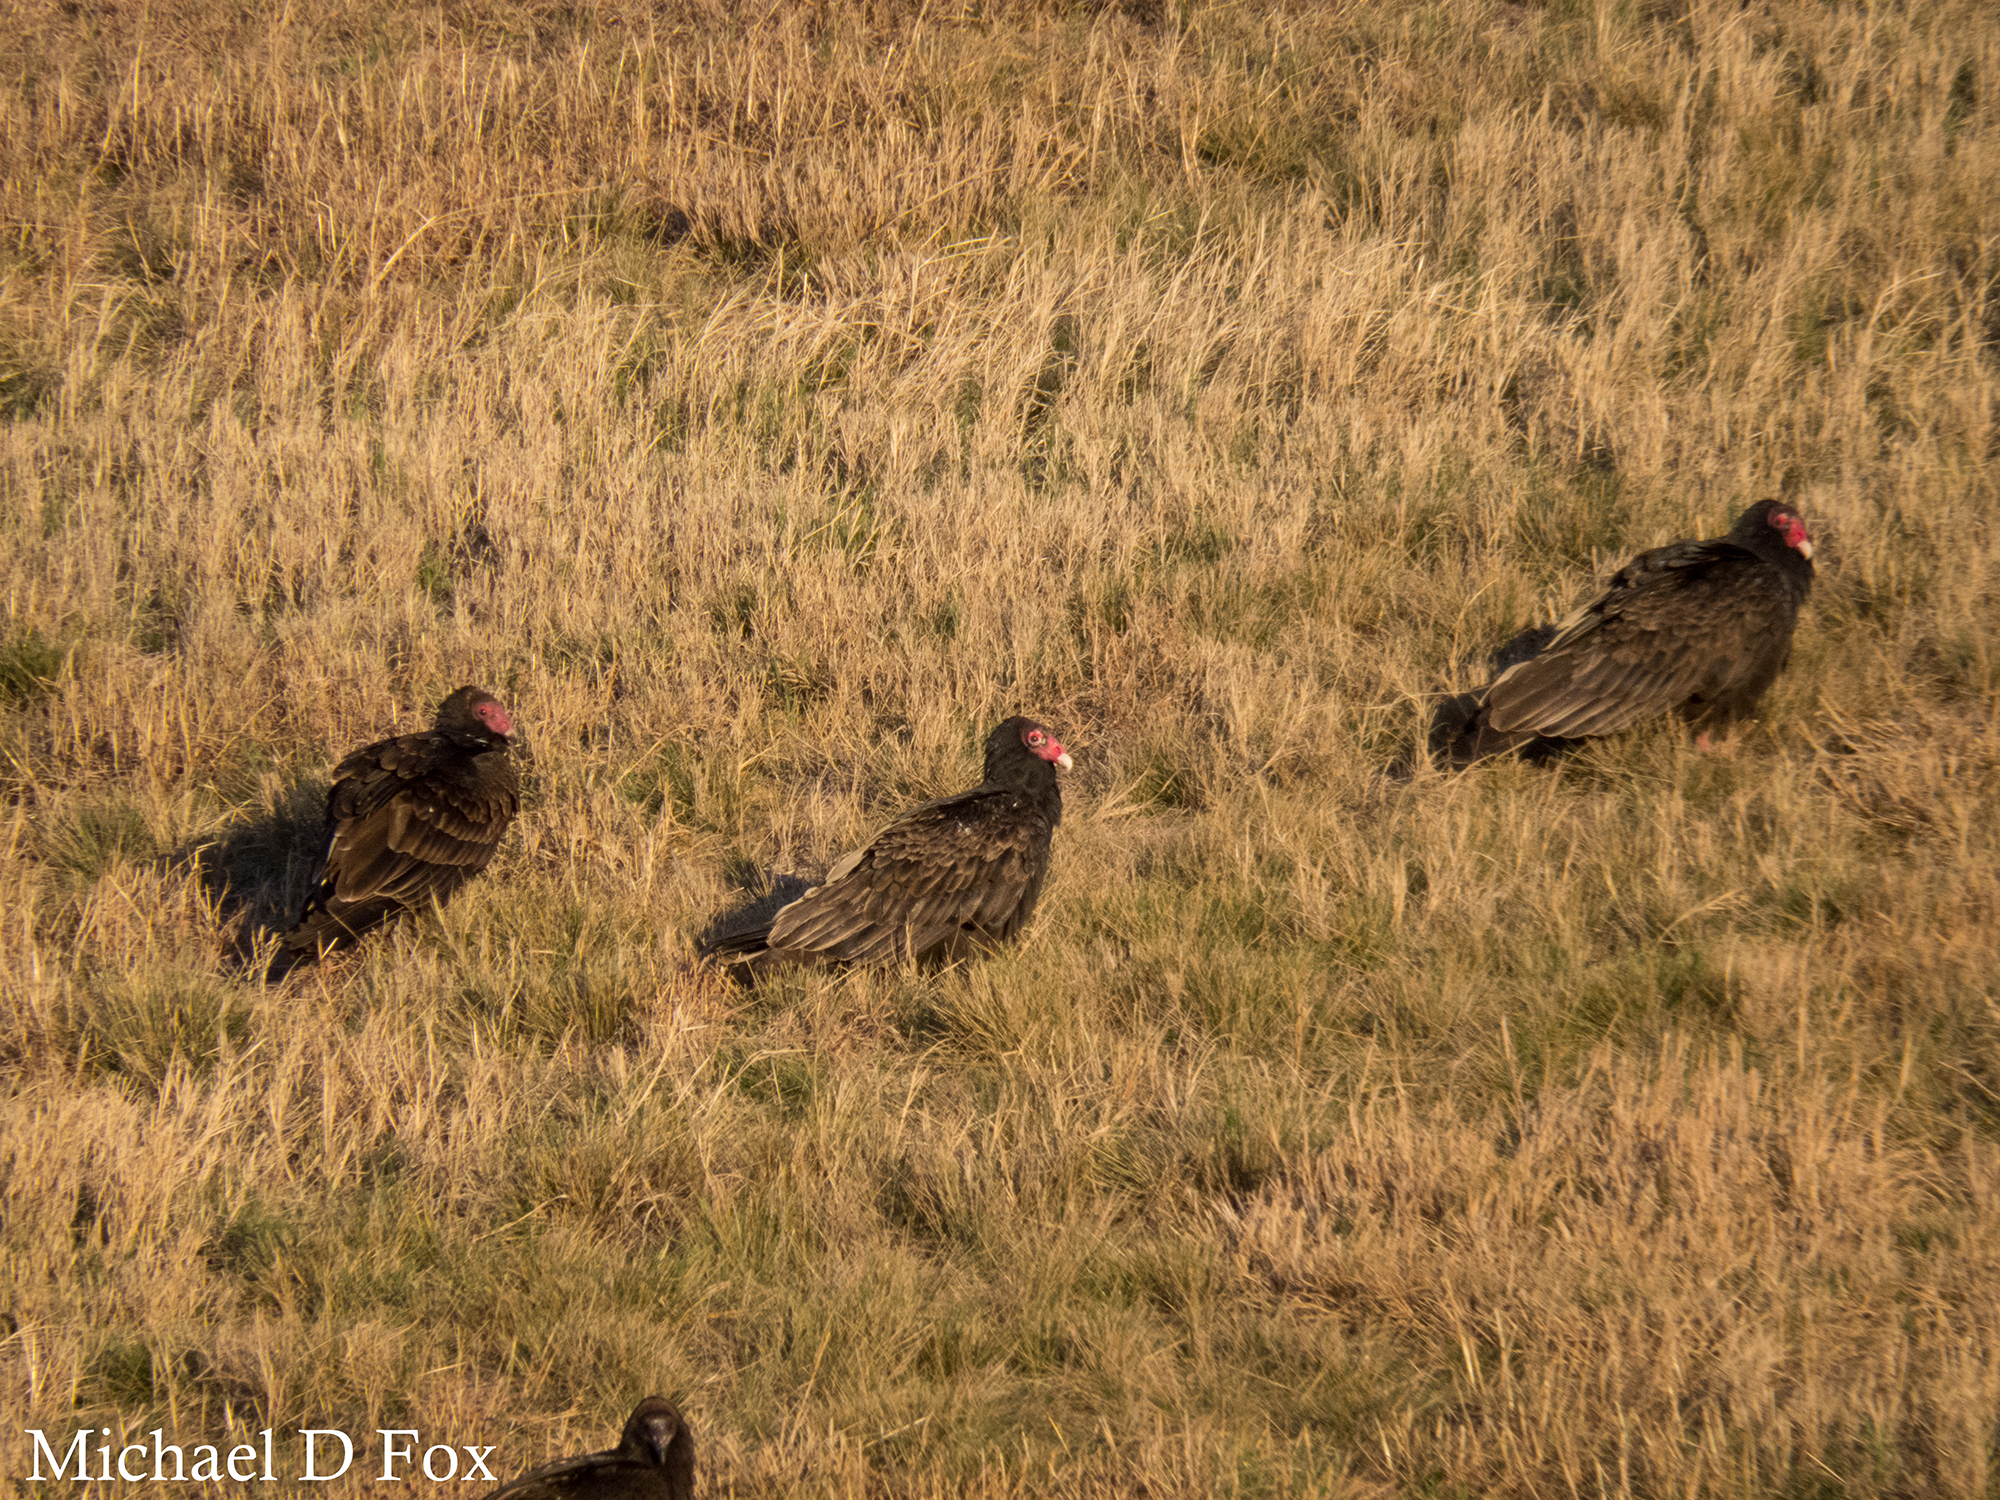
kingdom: Animalia
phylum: Chordata
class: Aves
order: Accipitriformes
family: Cathartidae
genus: Cathartes
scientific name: Cathartes aura
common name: Turkey vulture
